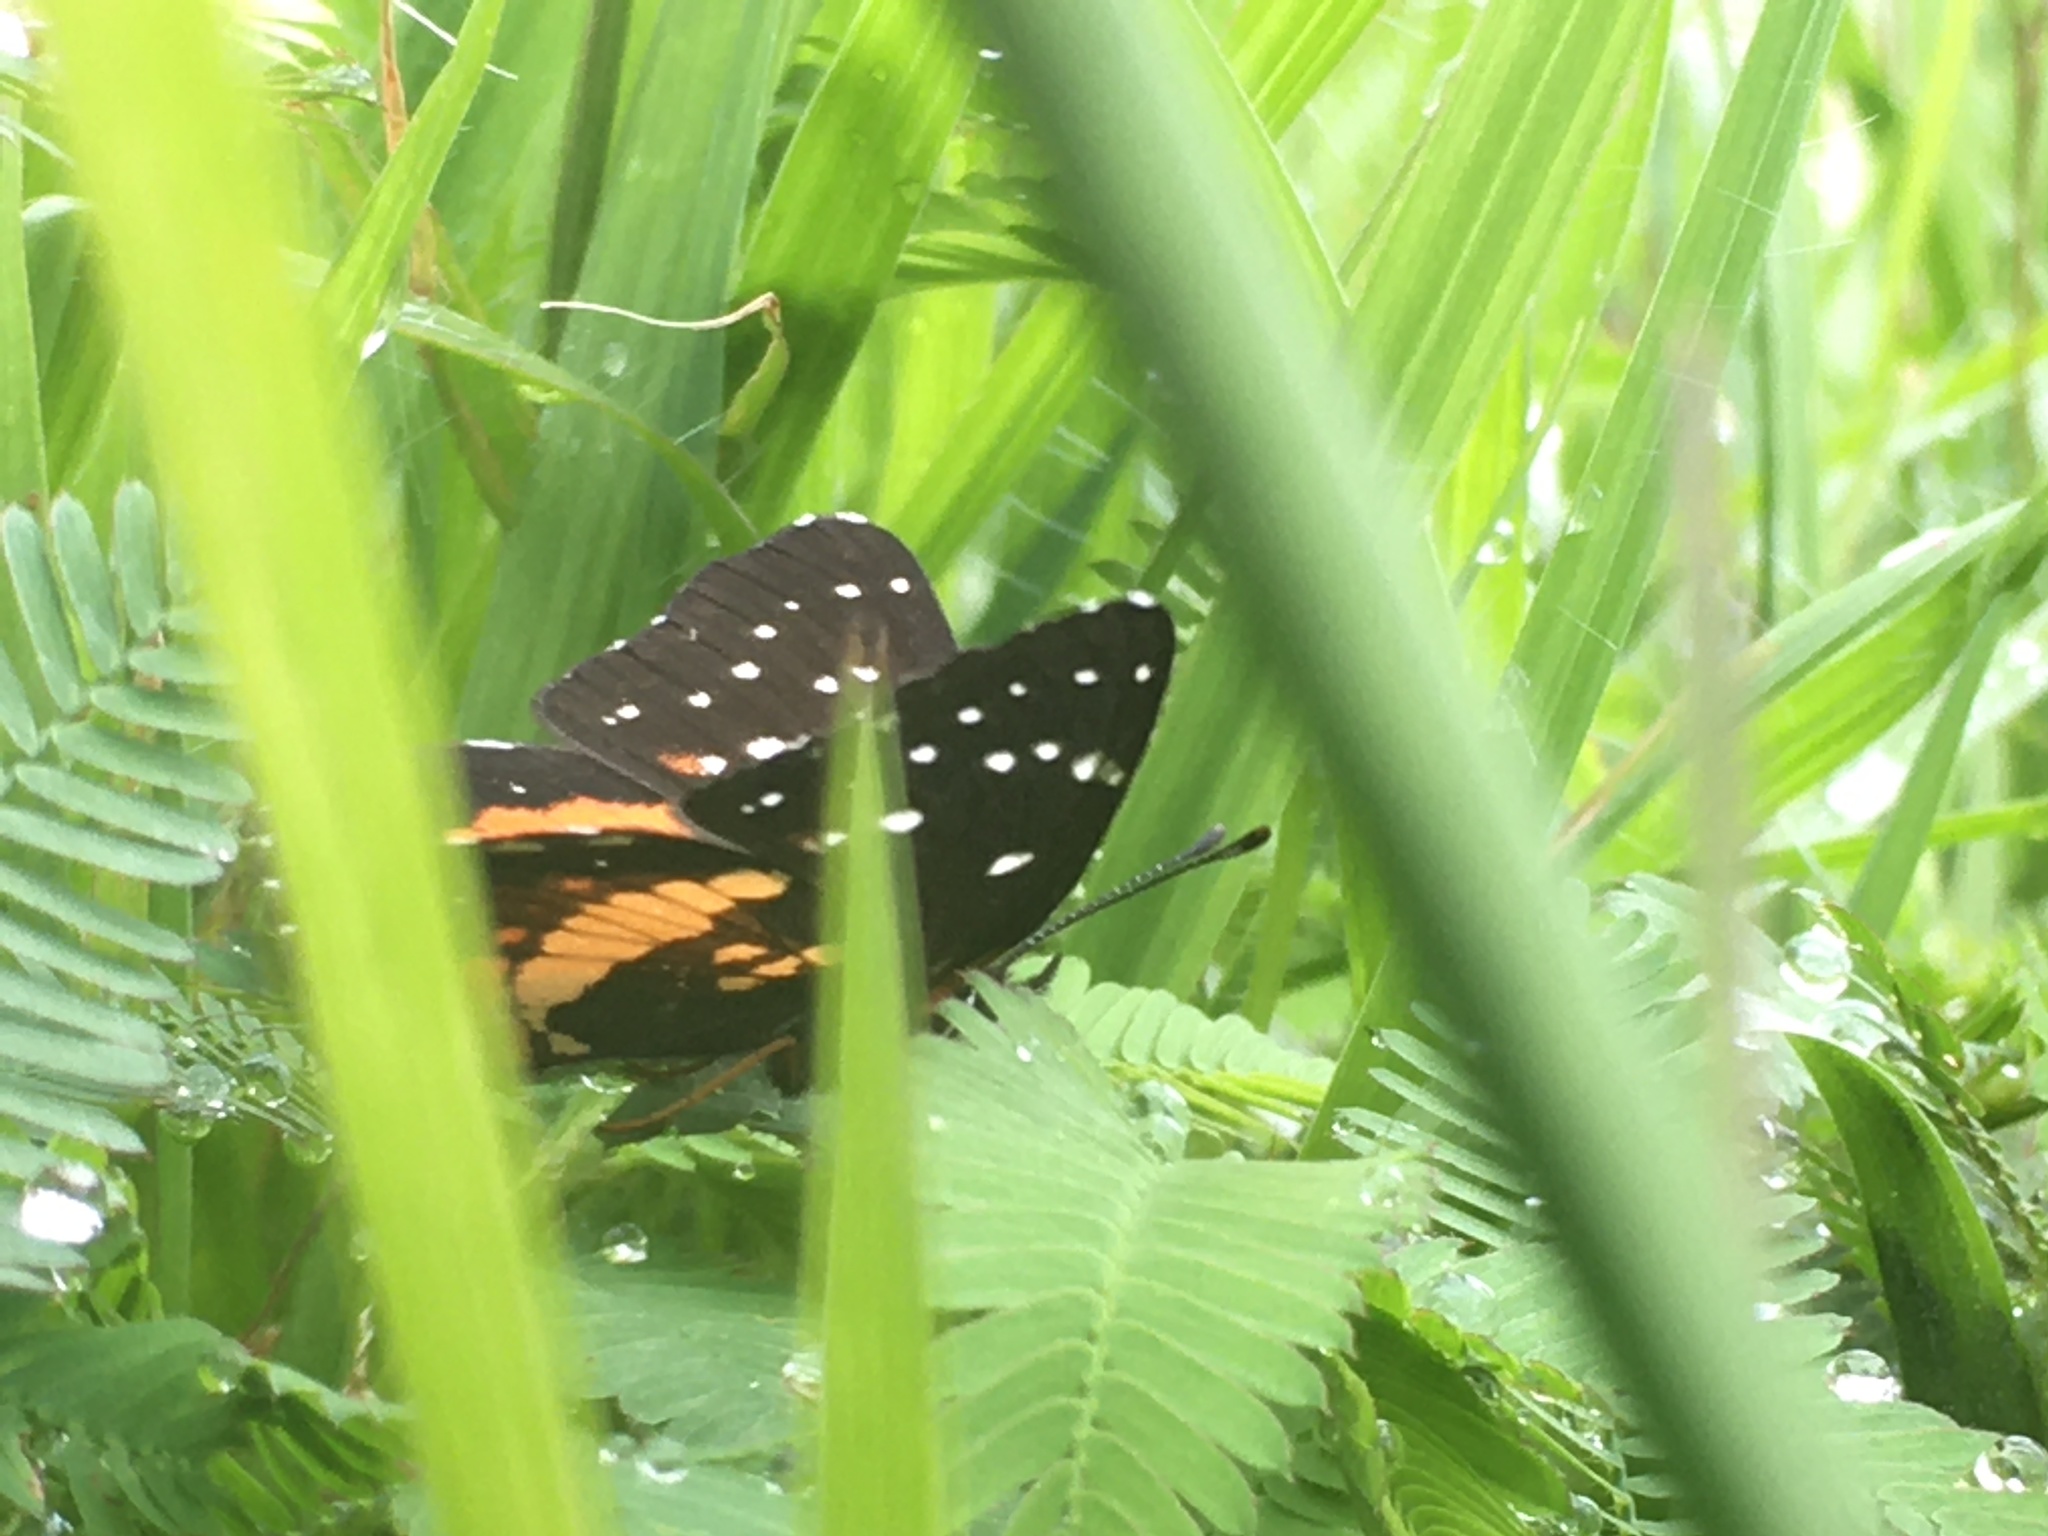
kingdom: Animalia
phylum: Arthropoda
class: Insecta
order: Lepidoptera
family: Nymphalidae
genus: Chlosyne
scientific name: Chlosyne lacinia
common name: Bordered patch
